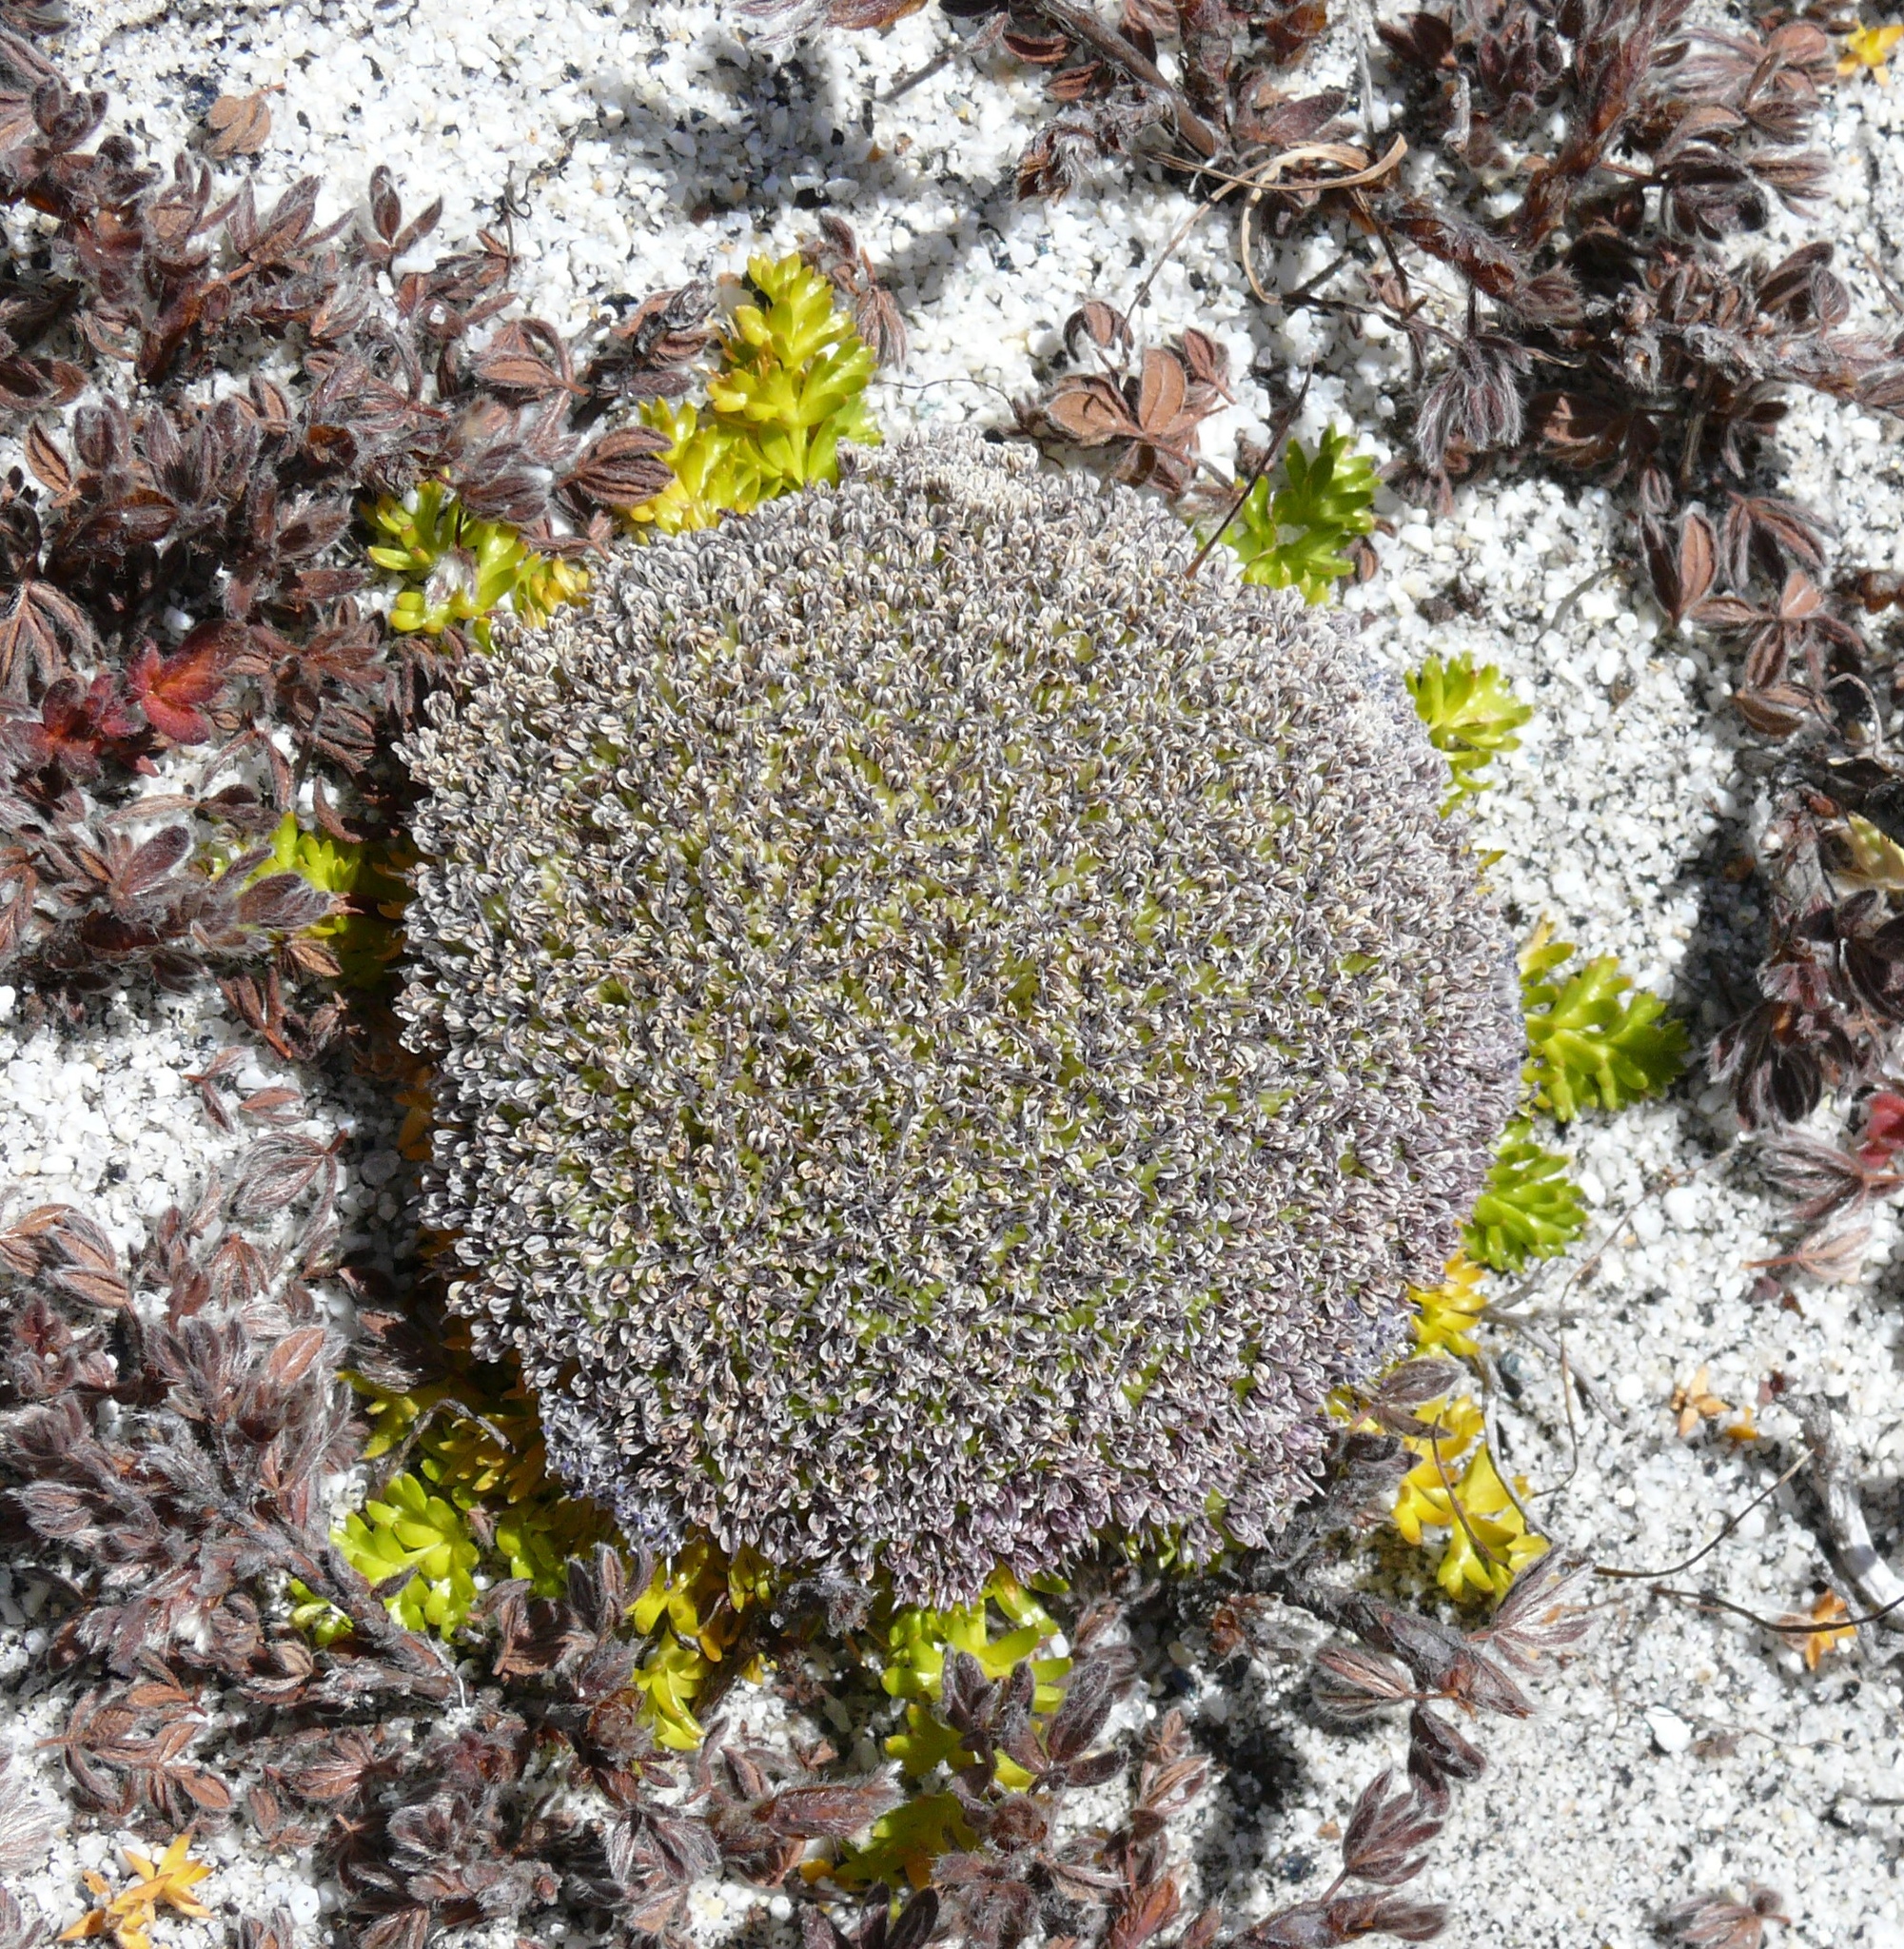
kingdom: Plantae
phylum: Tracheophyta
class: Magnoliopsida
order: Apiales
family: Apiaceae
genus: Cortiella
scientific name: Cortiella hookeri
